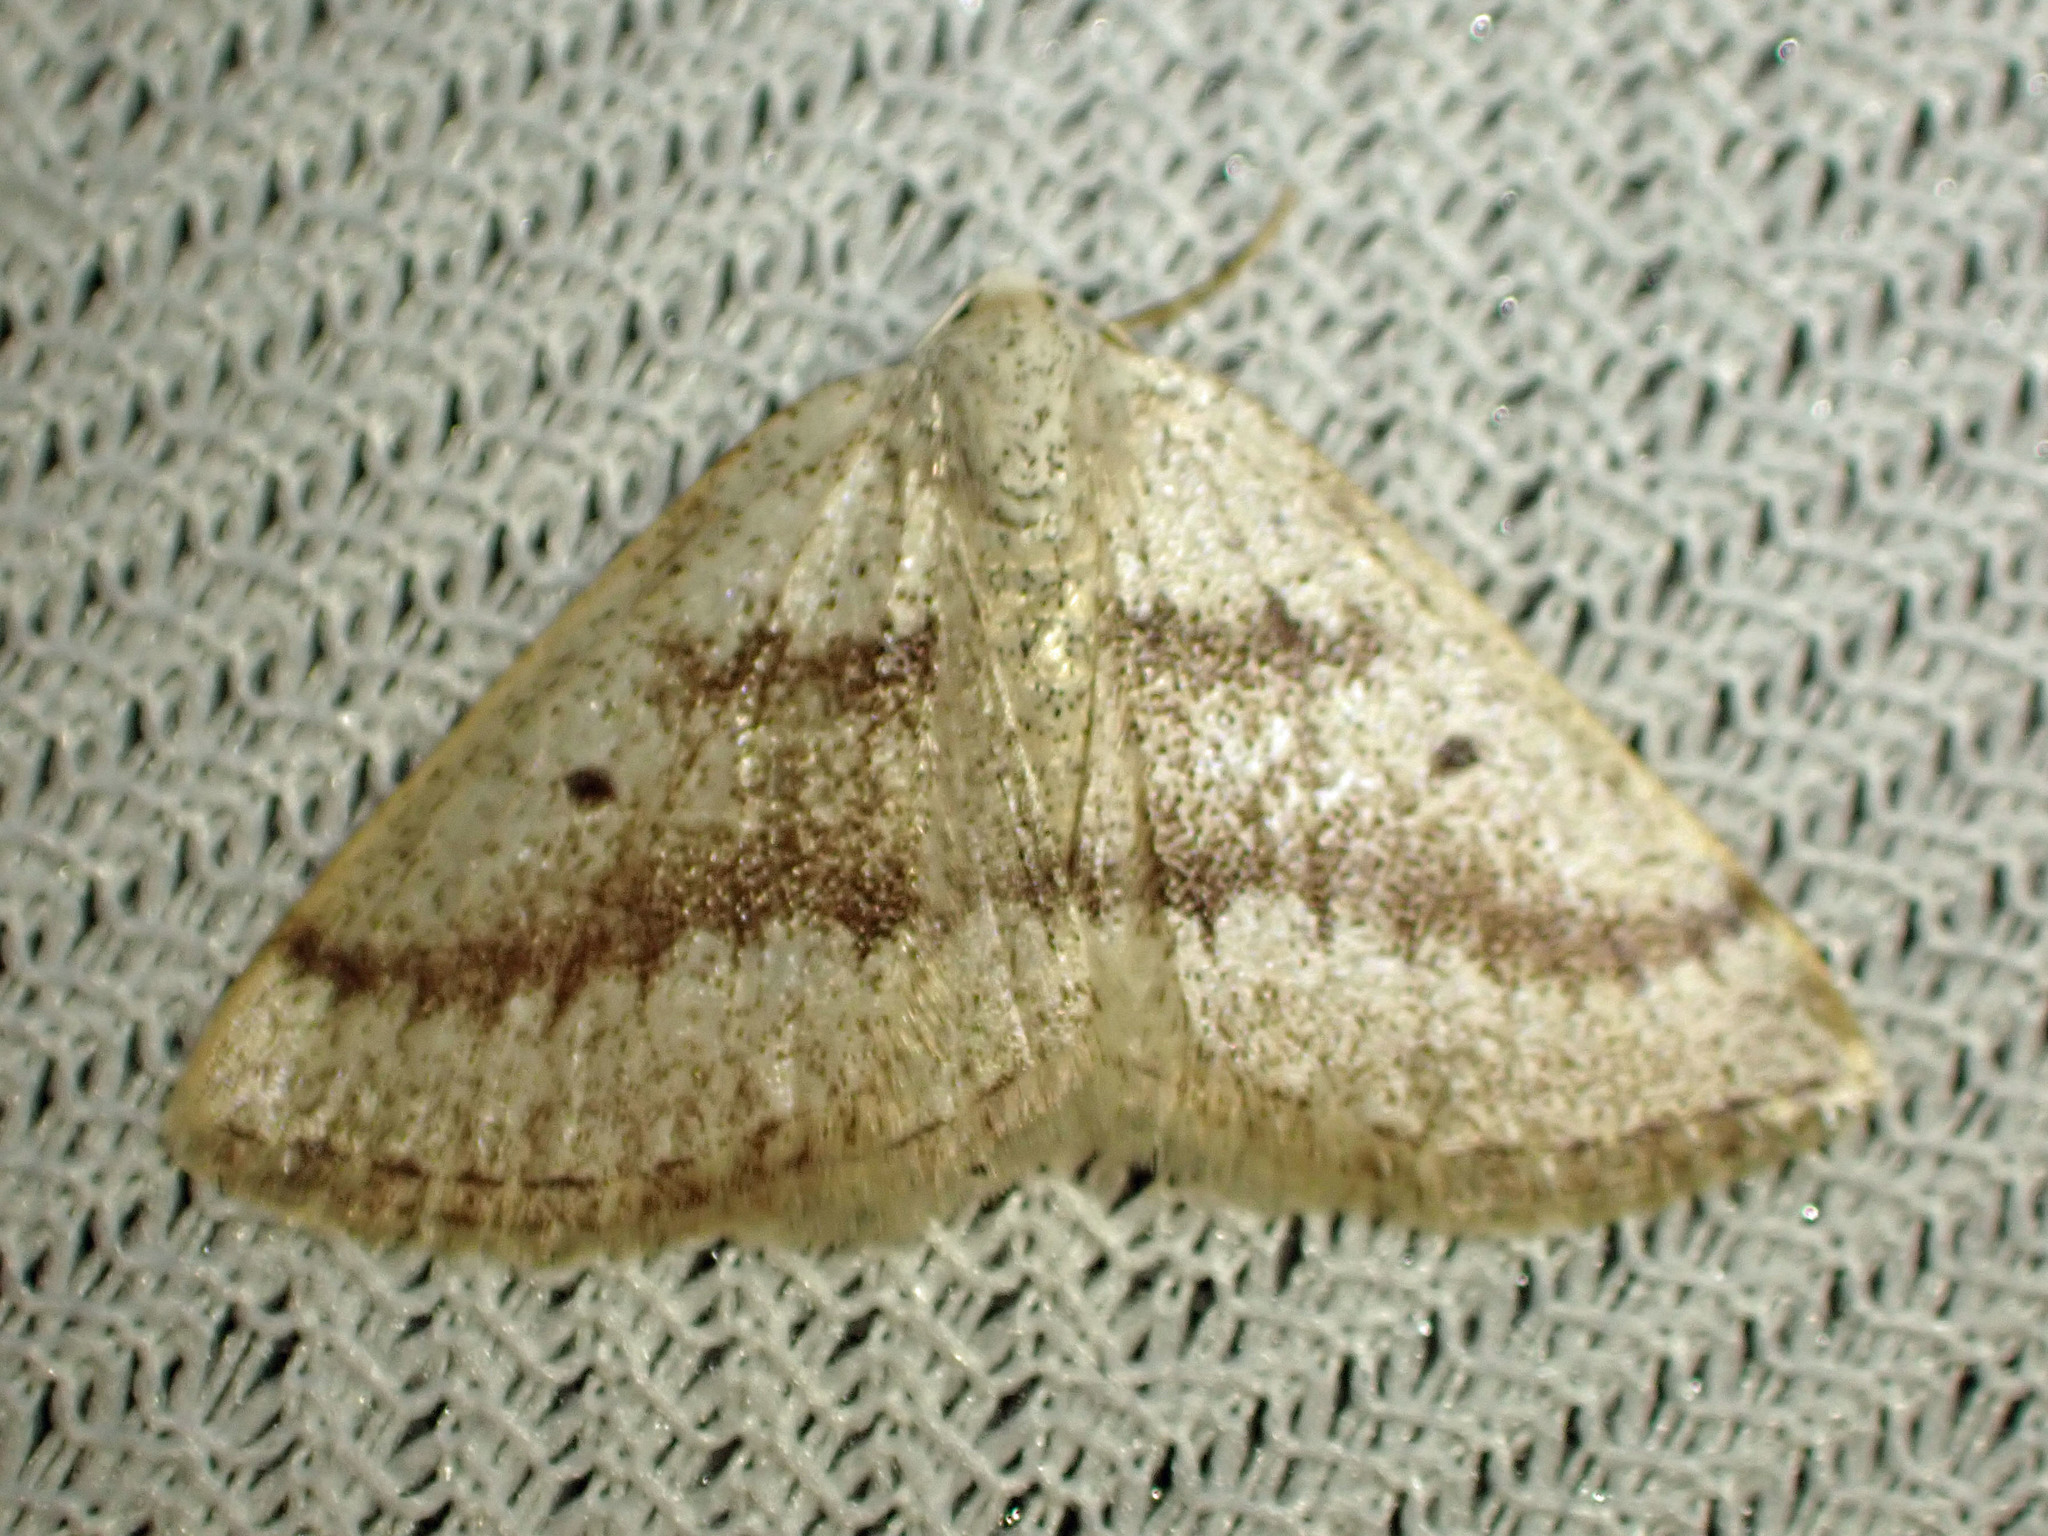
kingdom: Animalia
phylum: Arthropoda
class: Insecta
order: Lepidoptera
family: Geometridae
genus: Lomographa
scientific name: Lomographa glomeraria
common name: Gray spring moth
